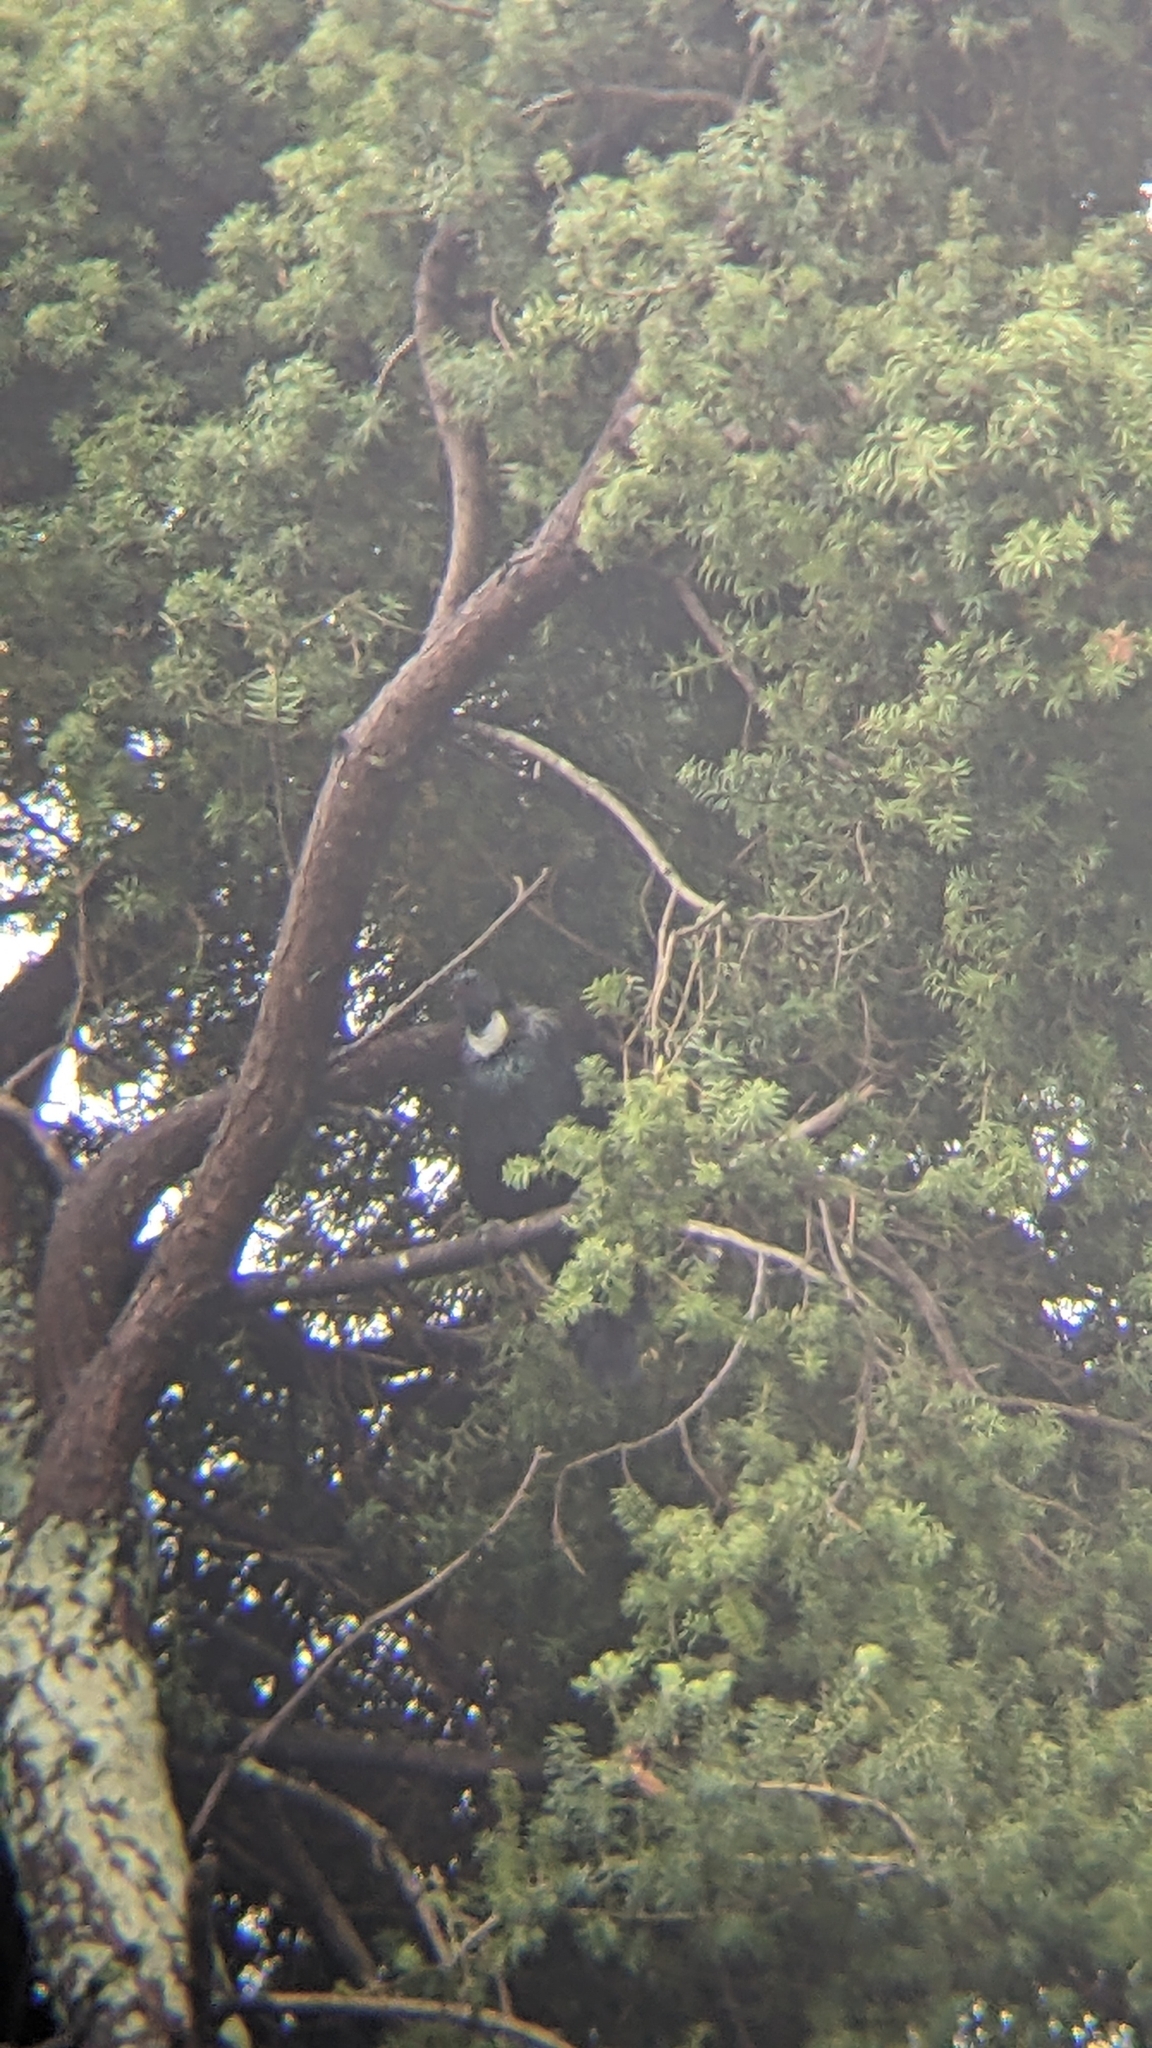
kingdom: Animalia
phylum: Chordata
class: Aves
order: Passeriformes
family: Meliphagidae
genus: Prosthemadera
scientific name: Prosthemadera novaeseelandiae
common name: Tui
